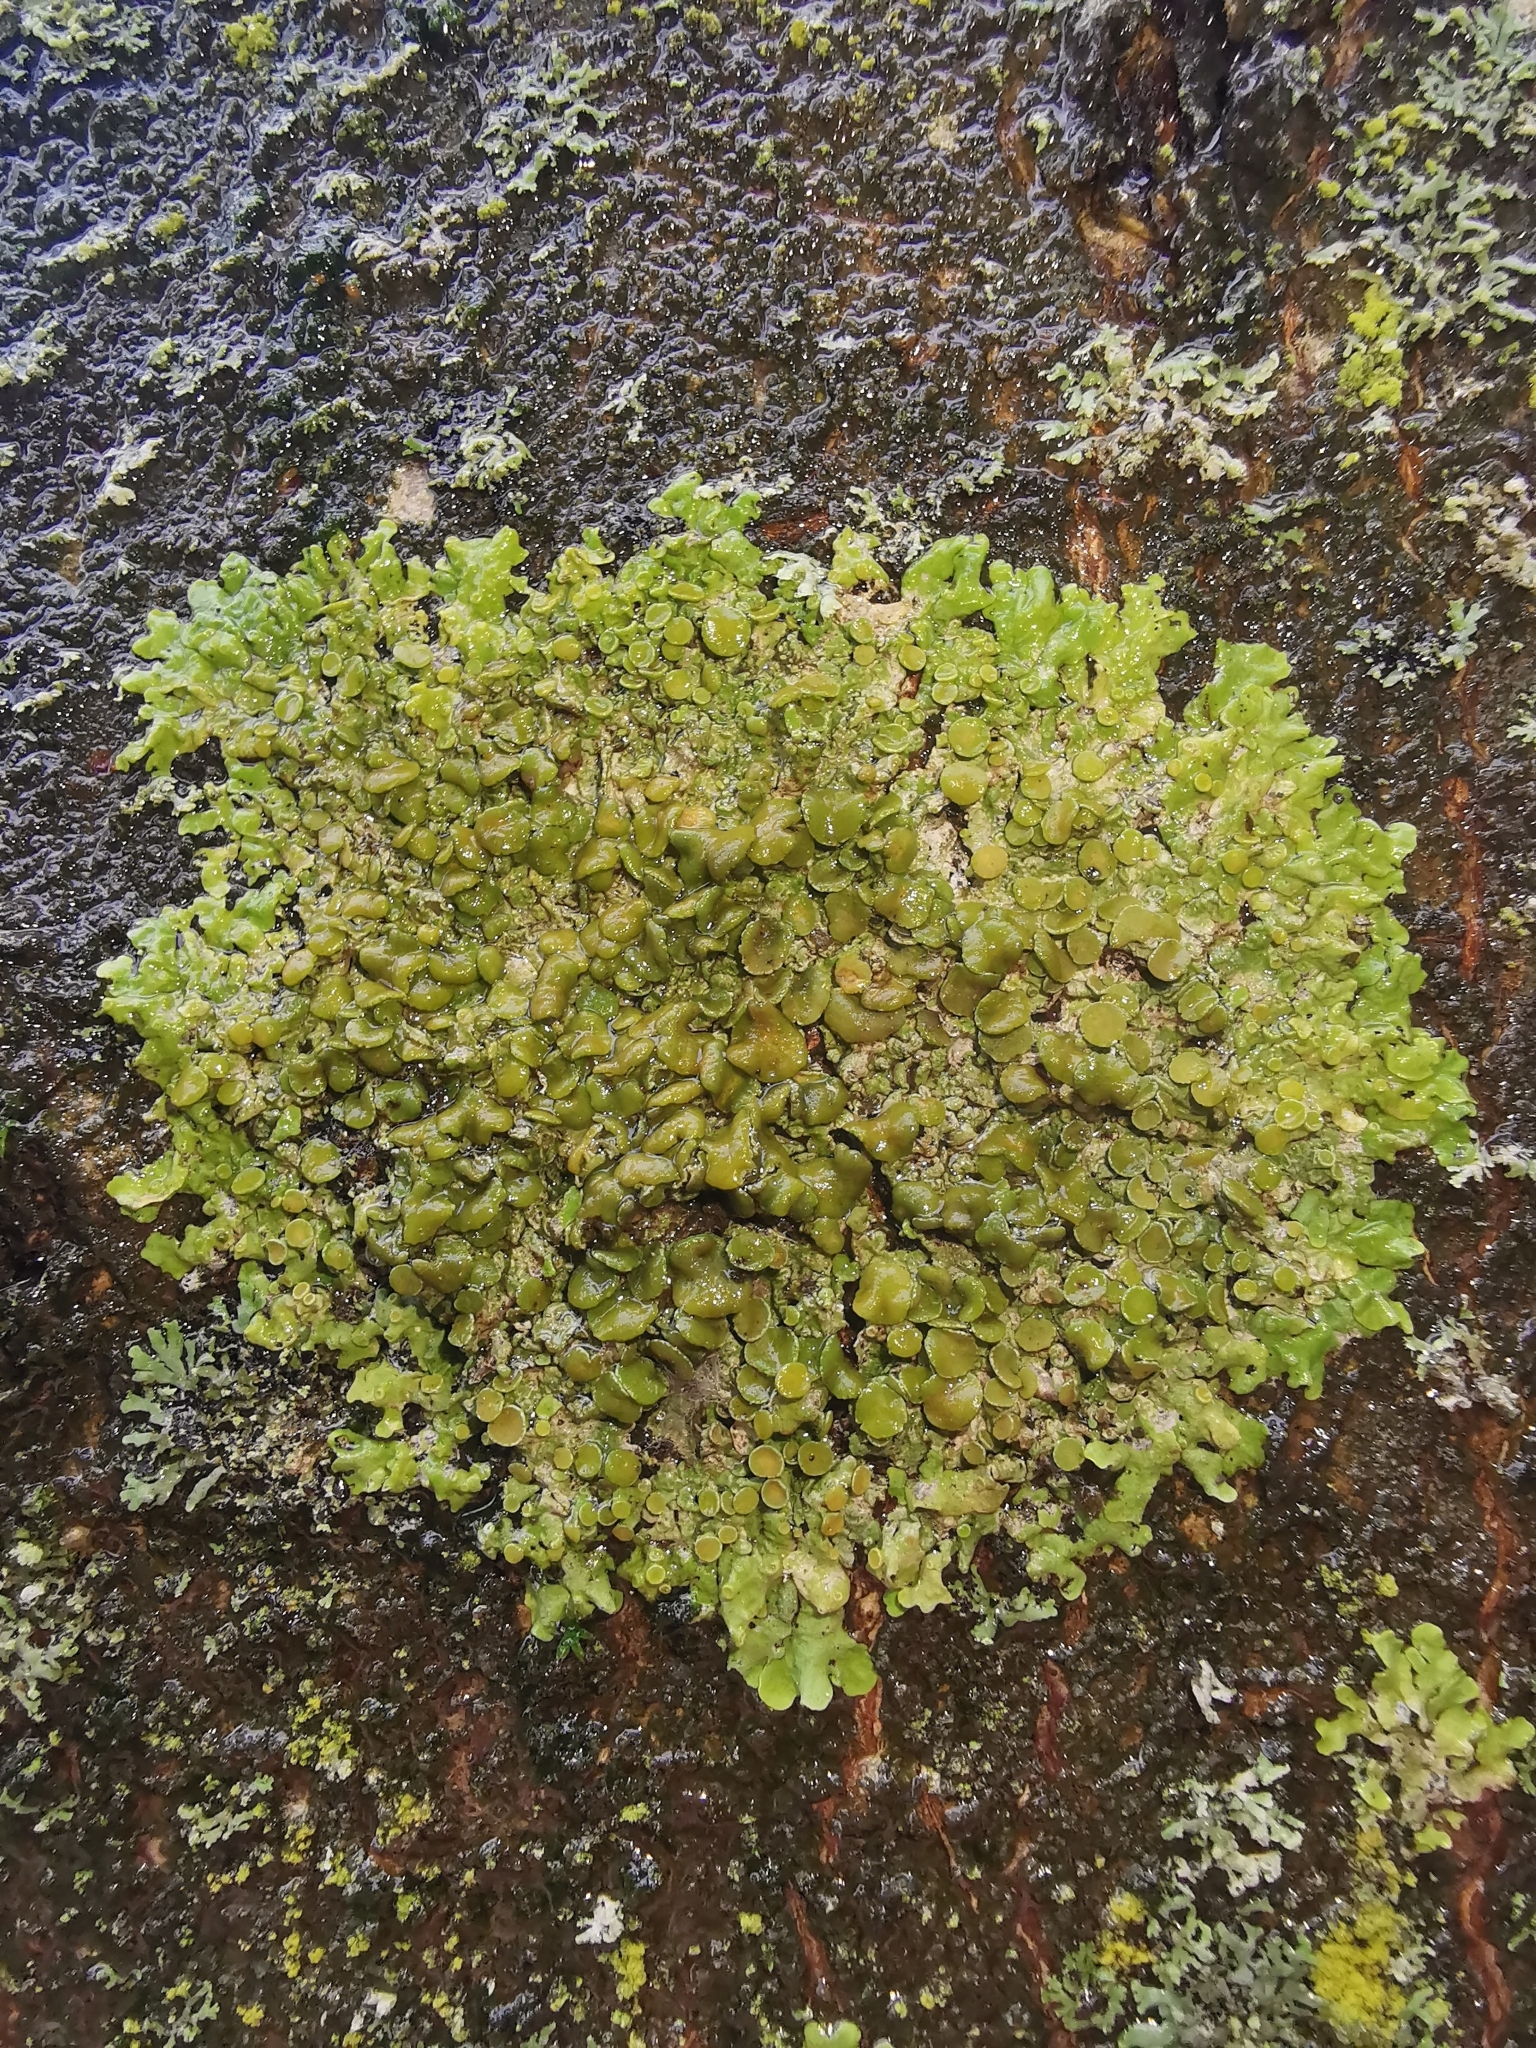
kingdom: Fungi
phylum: Ascomycota
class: Lecanoromycetes
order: Teloschistales
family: Teloschistaceae
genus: Xanthoria
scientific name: Xanthoria parietina
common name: Common orange lichen
